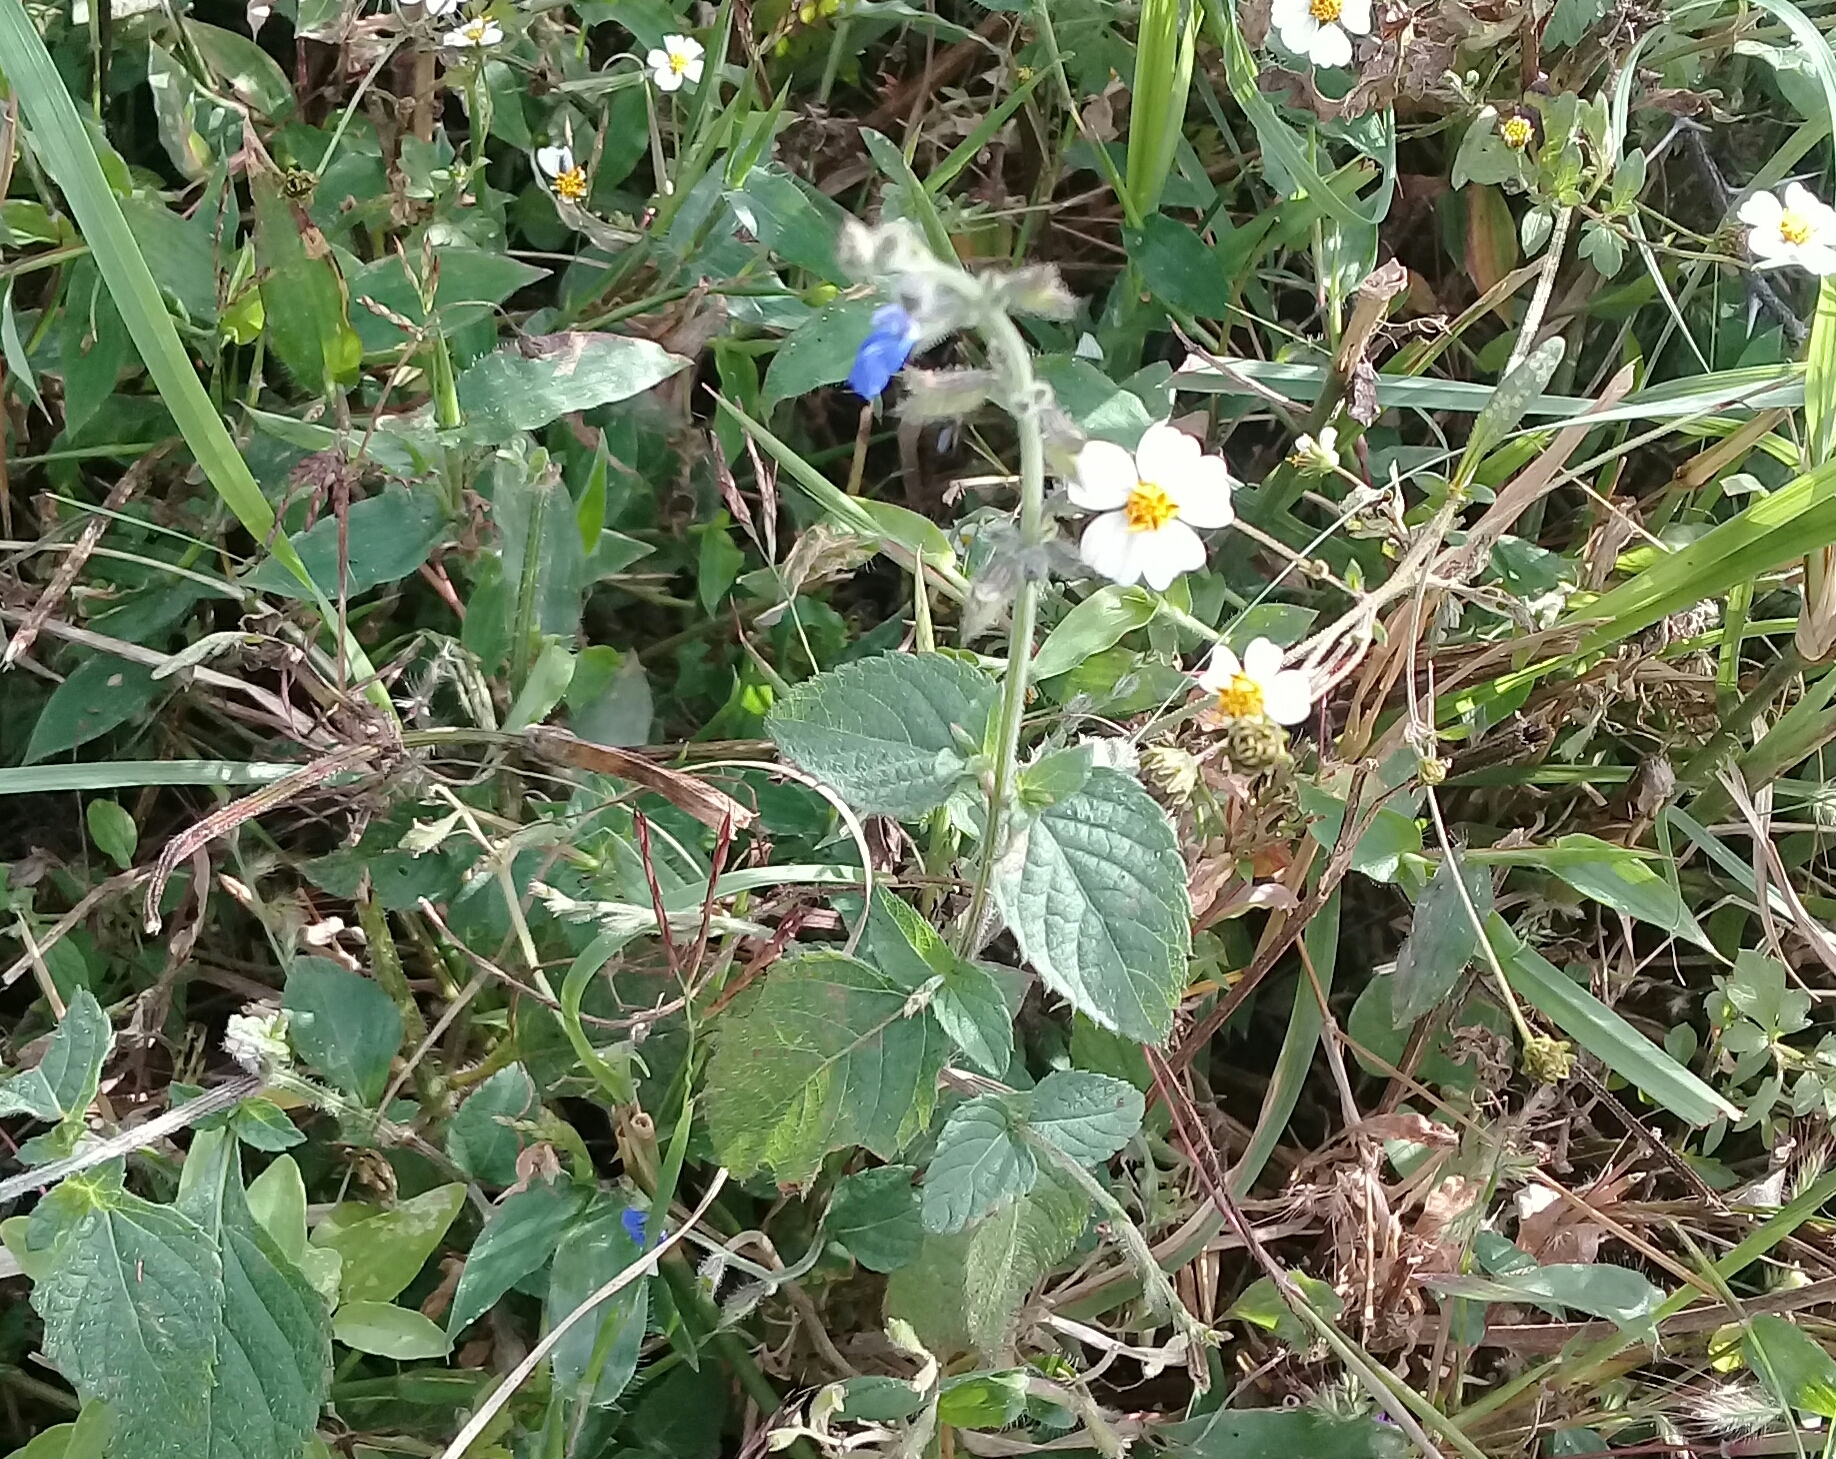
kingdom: Plantae
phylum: Tracheophyta
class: Magnoliopsida
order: Lamiales
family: Lamiaceae
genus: Salvia
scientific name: Salvia misella
